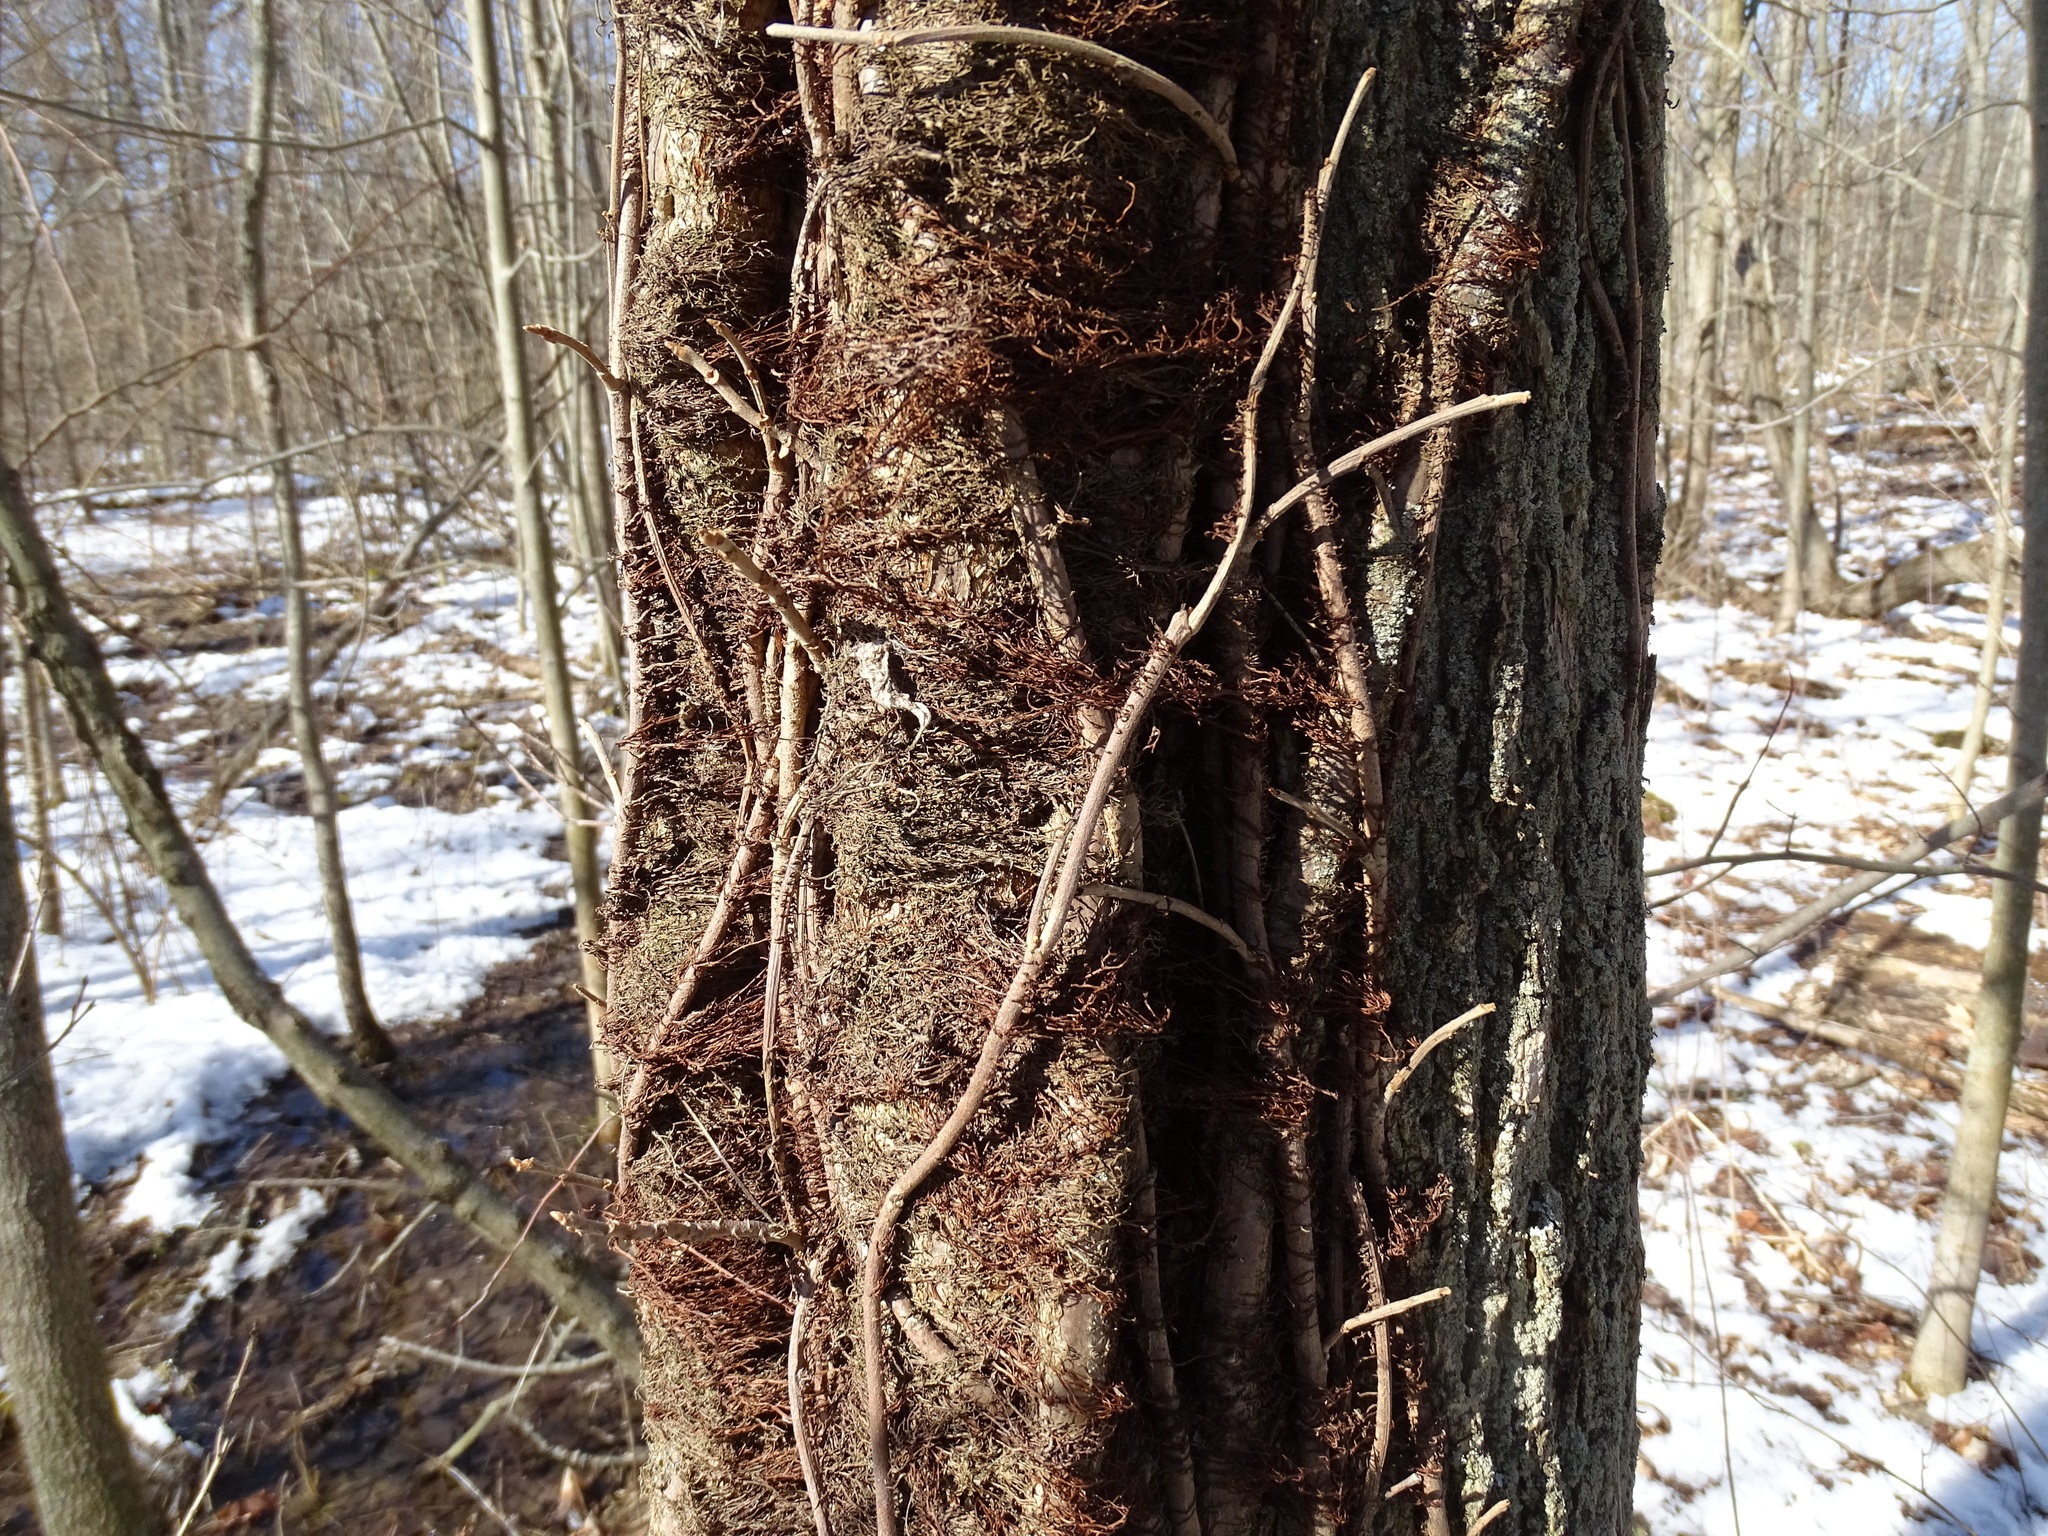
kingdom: Plantae
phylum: Tracheophyta
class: Magnoliopsida
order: Sapindales
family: Anacardiaceae
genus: Toxicodendron
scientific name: Toxicodendron radicans
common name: Poison ivy
